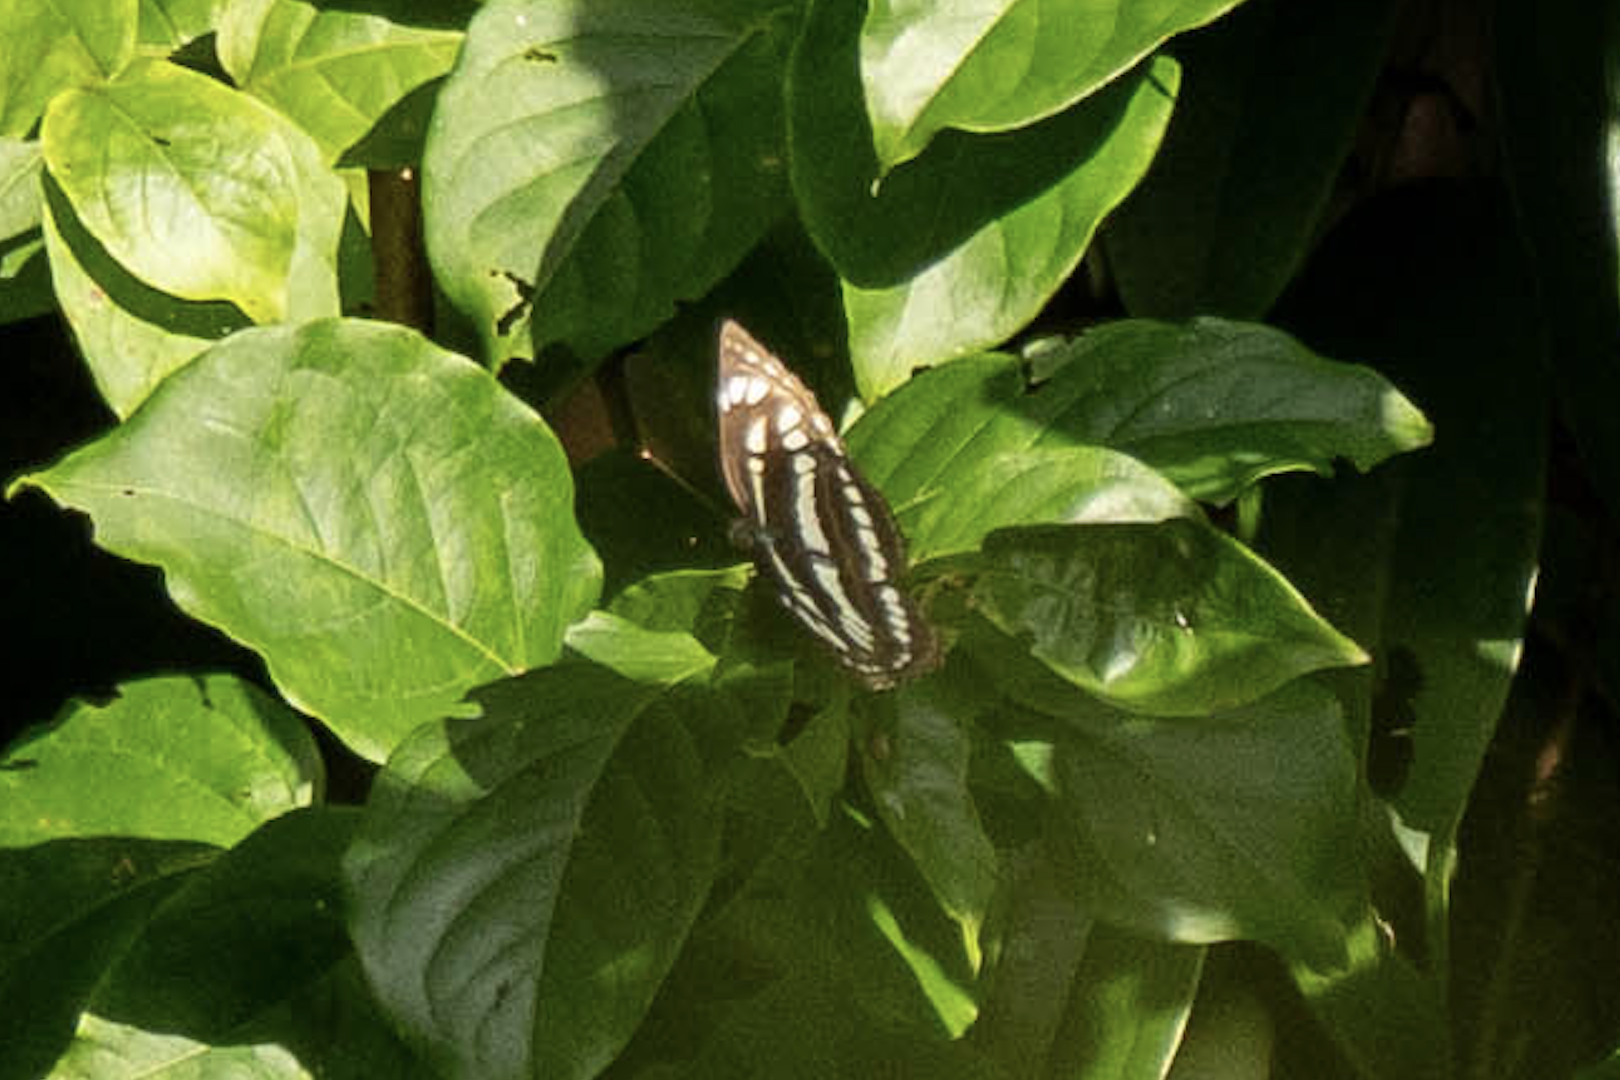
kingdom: Animalia
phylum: Arthropoda
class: Insecta
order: Lepidoptera
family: Nymphalidae
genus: Neptis
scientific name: Neptis hylas
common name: Common sailer
